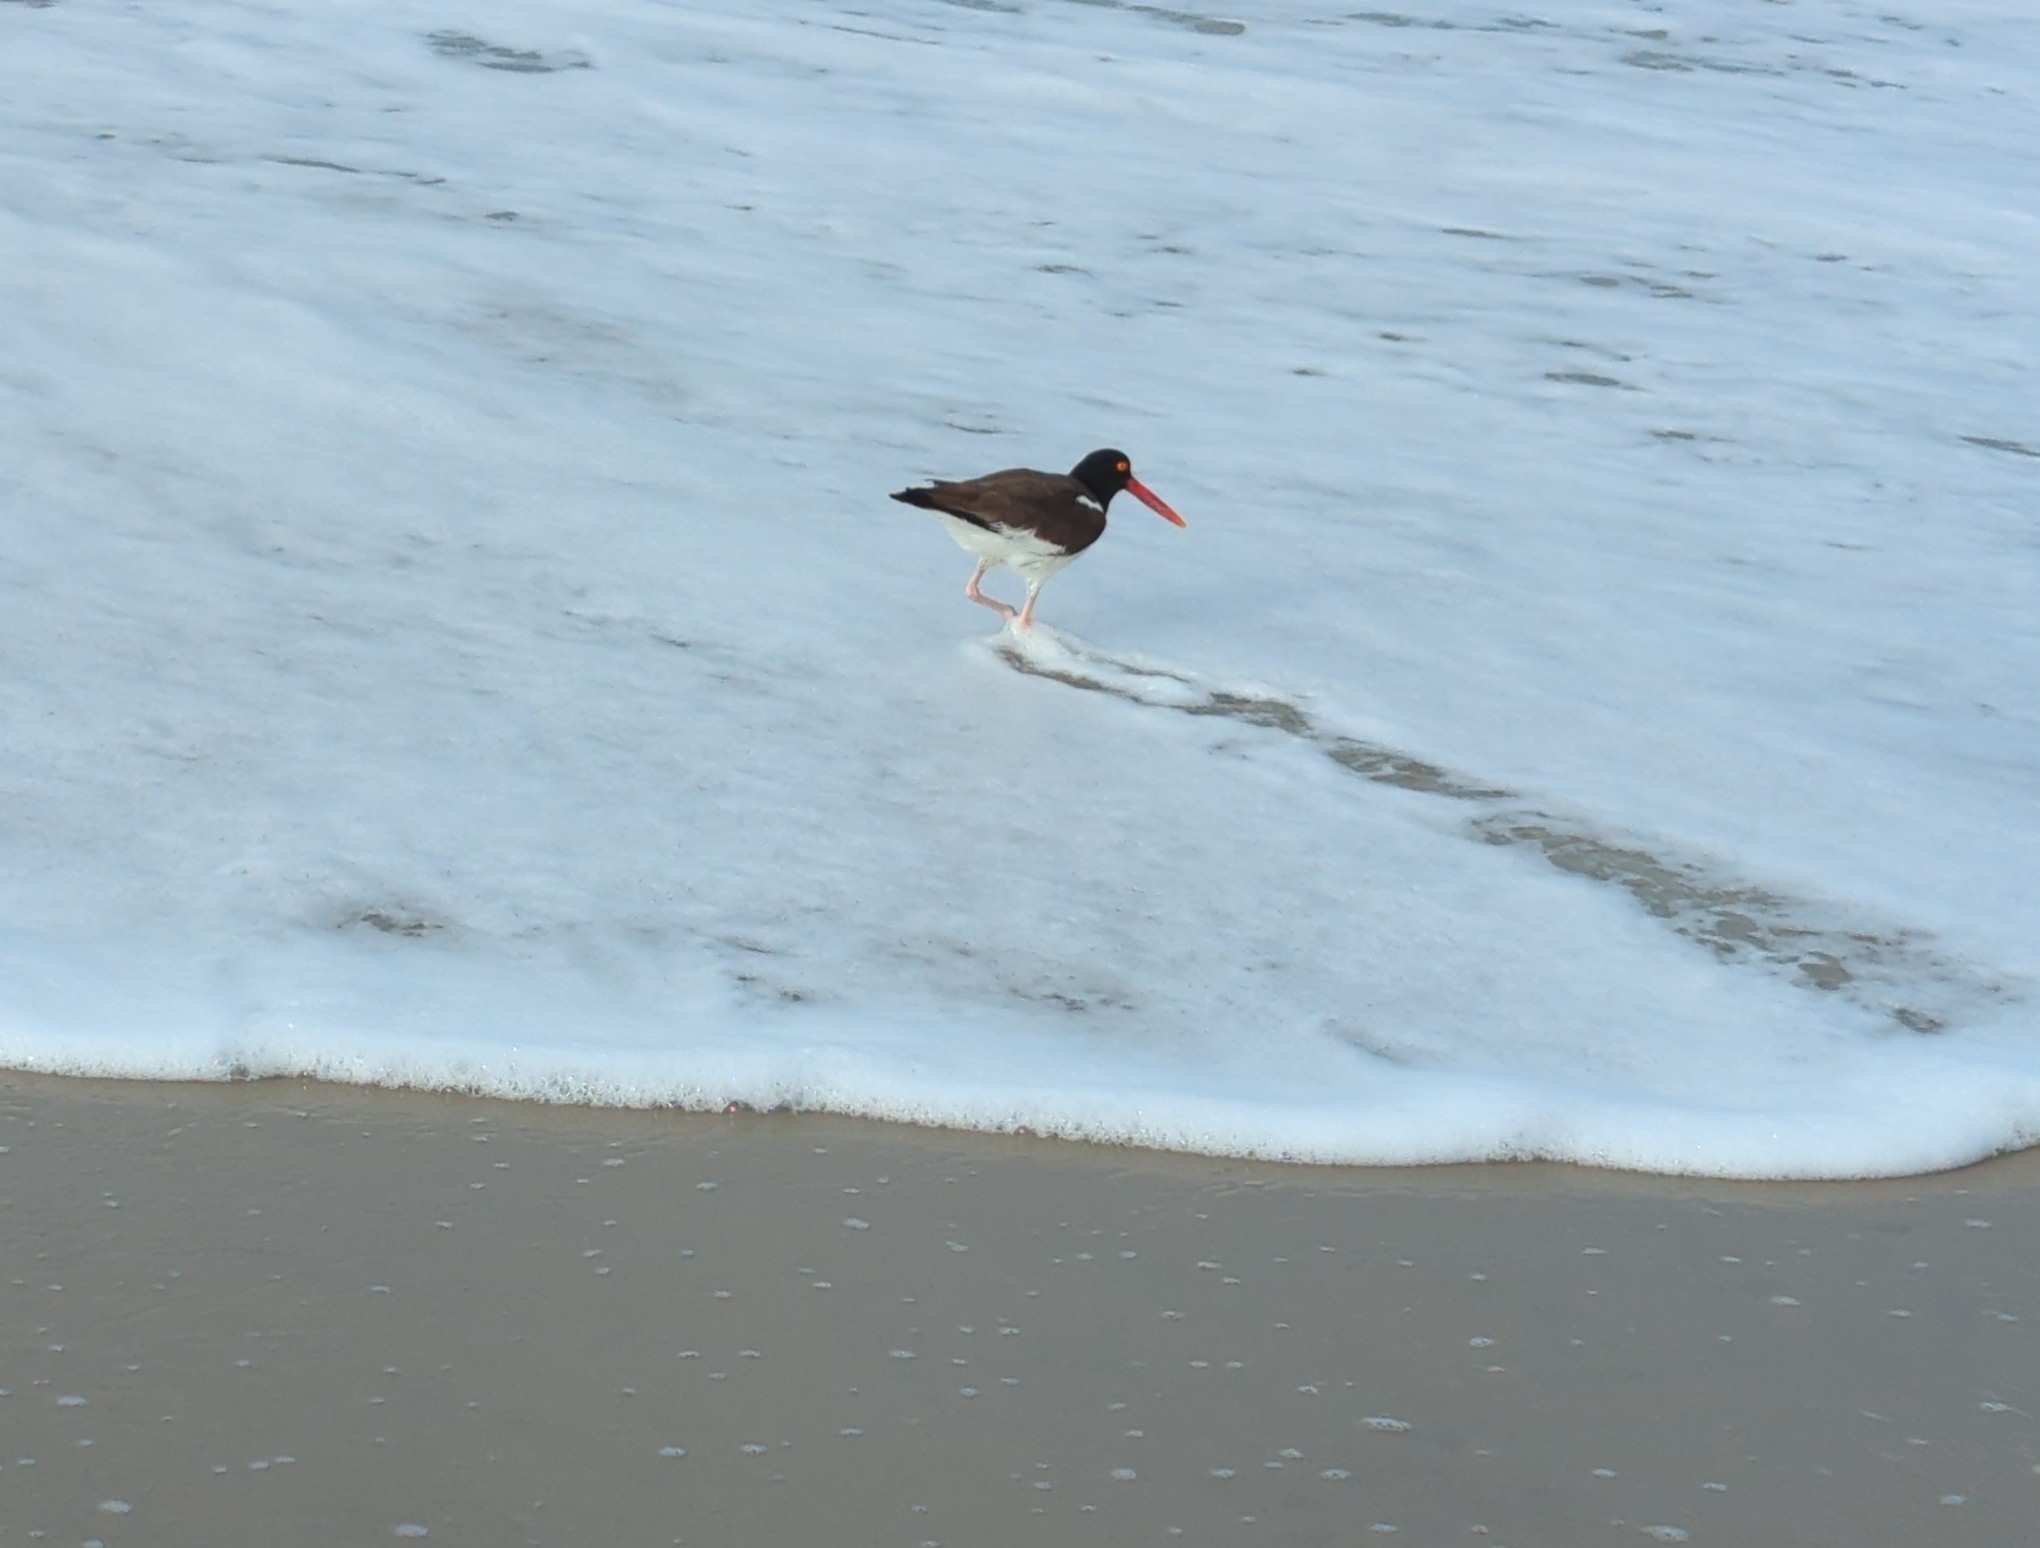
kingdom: Animalia
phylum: Chordata
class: Aves
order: Charadriiformes
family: Haematopodidae
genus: Haematopus
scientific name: Haematopus palliatus
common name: American oystercatcher
